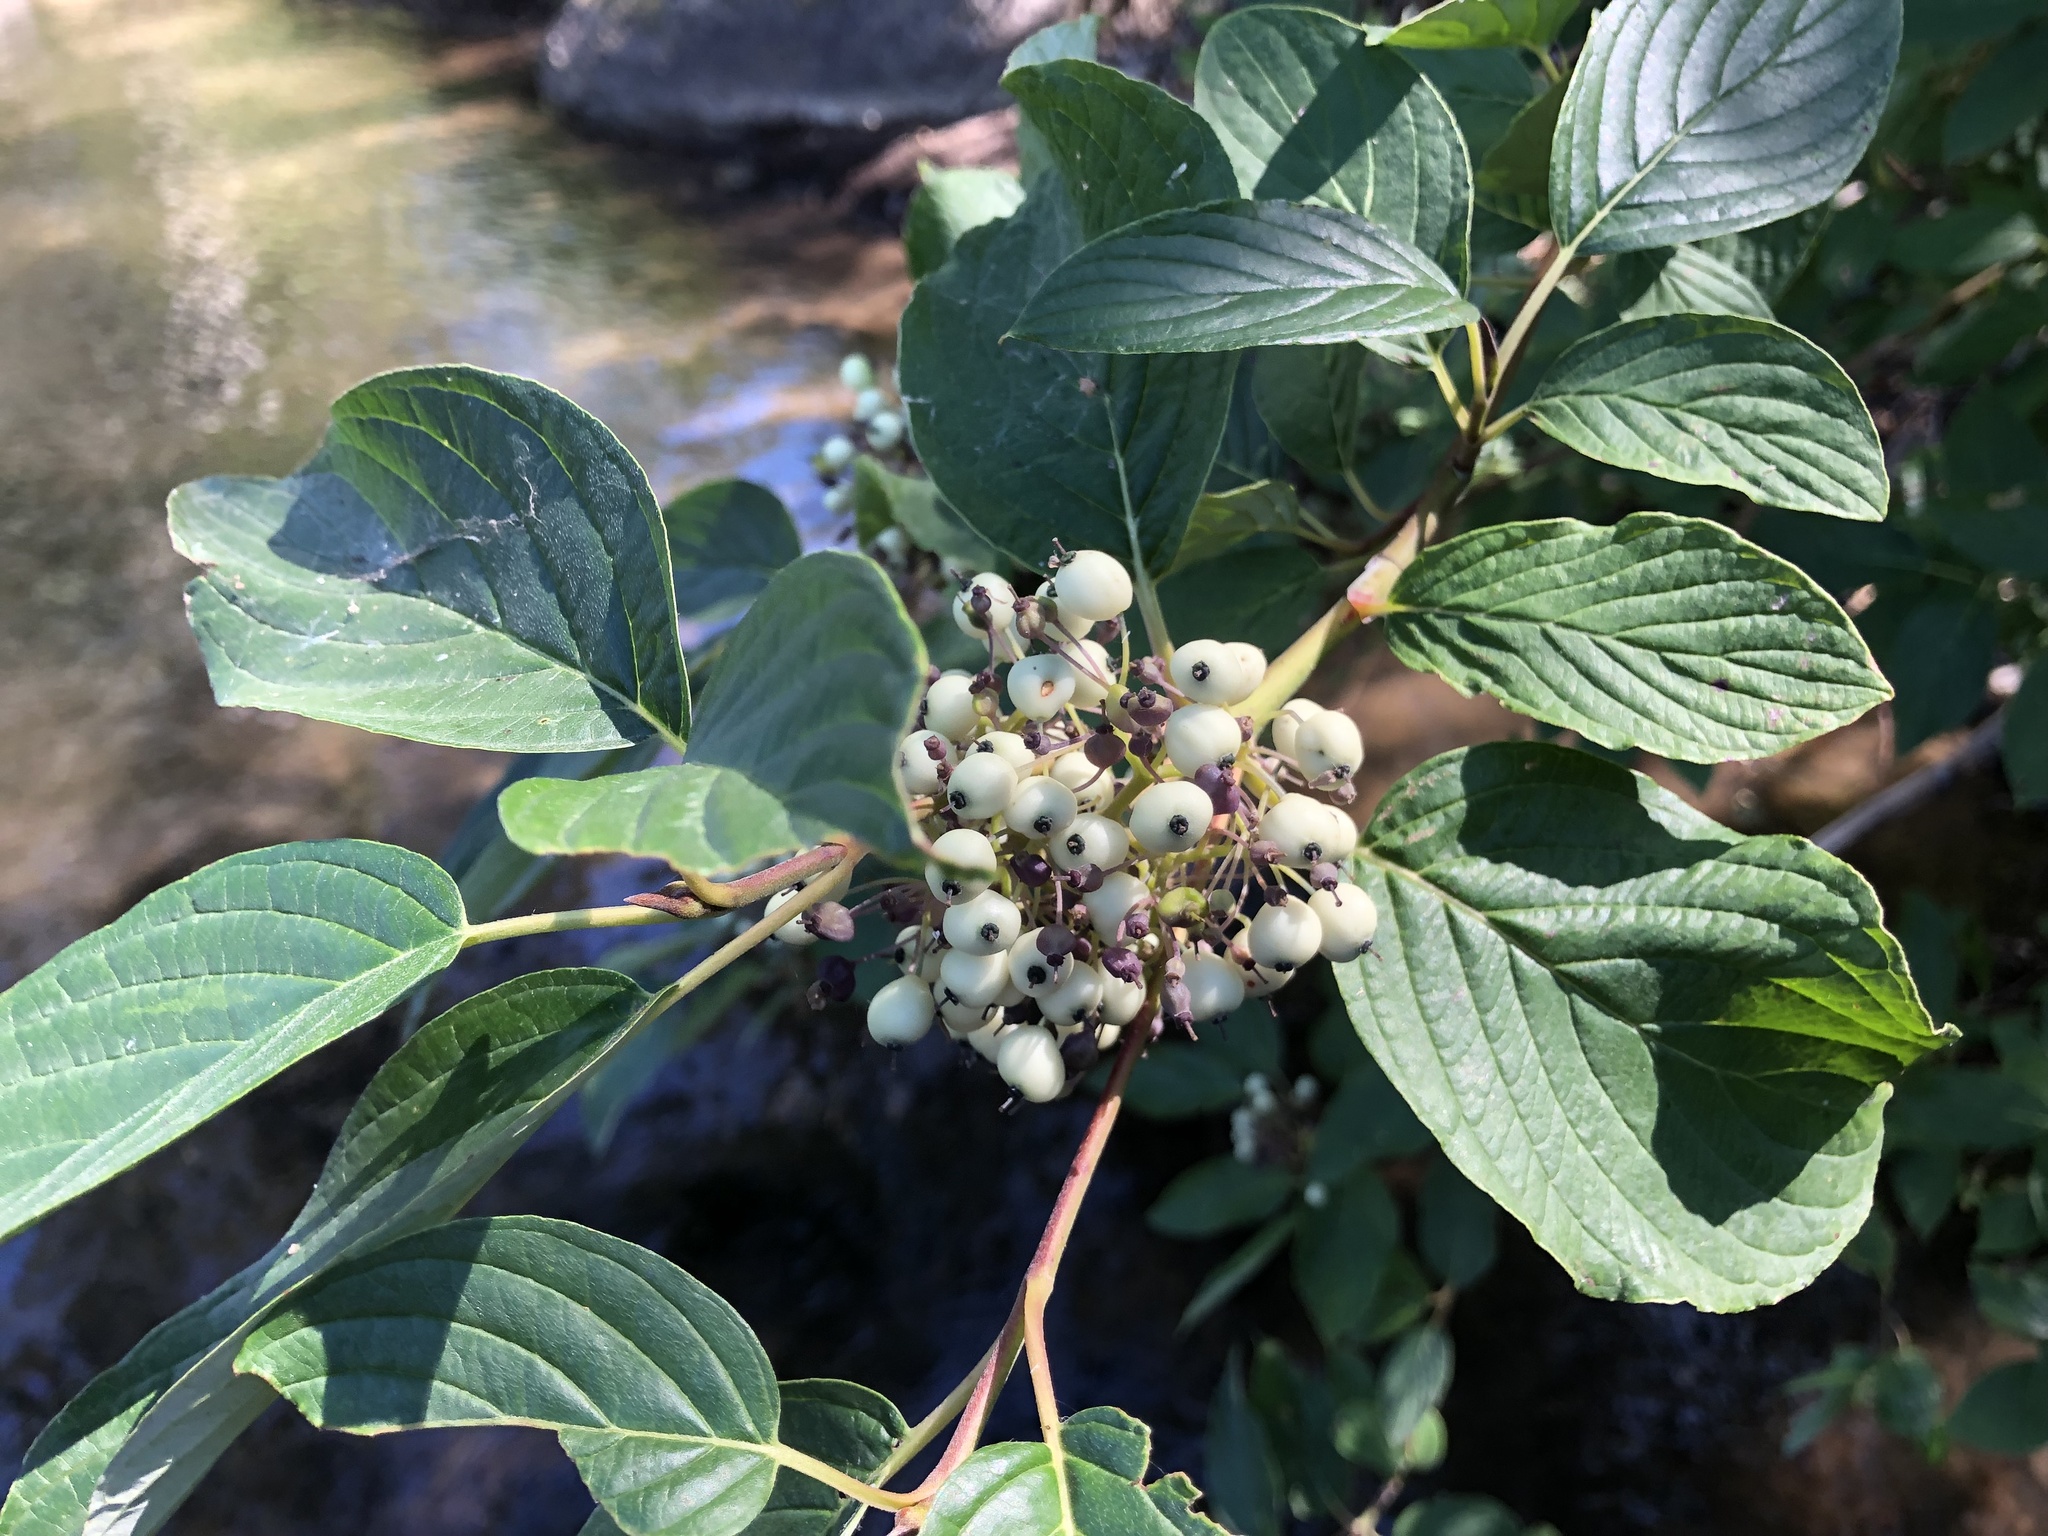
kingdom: Plantae
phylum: Tracheophyta
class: Magnoliopsida
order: Cornales
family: Cornaceae
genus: Cornus
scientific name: Cornus sericea
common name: Red-osier dogwood
